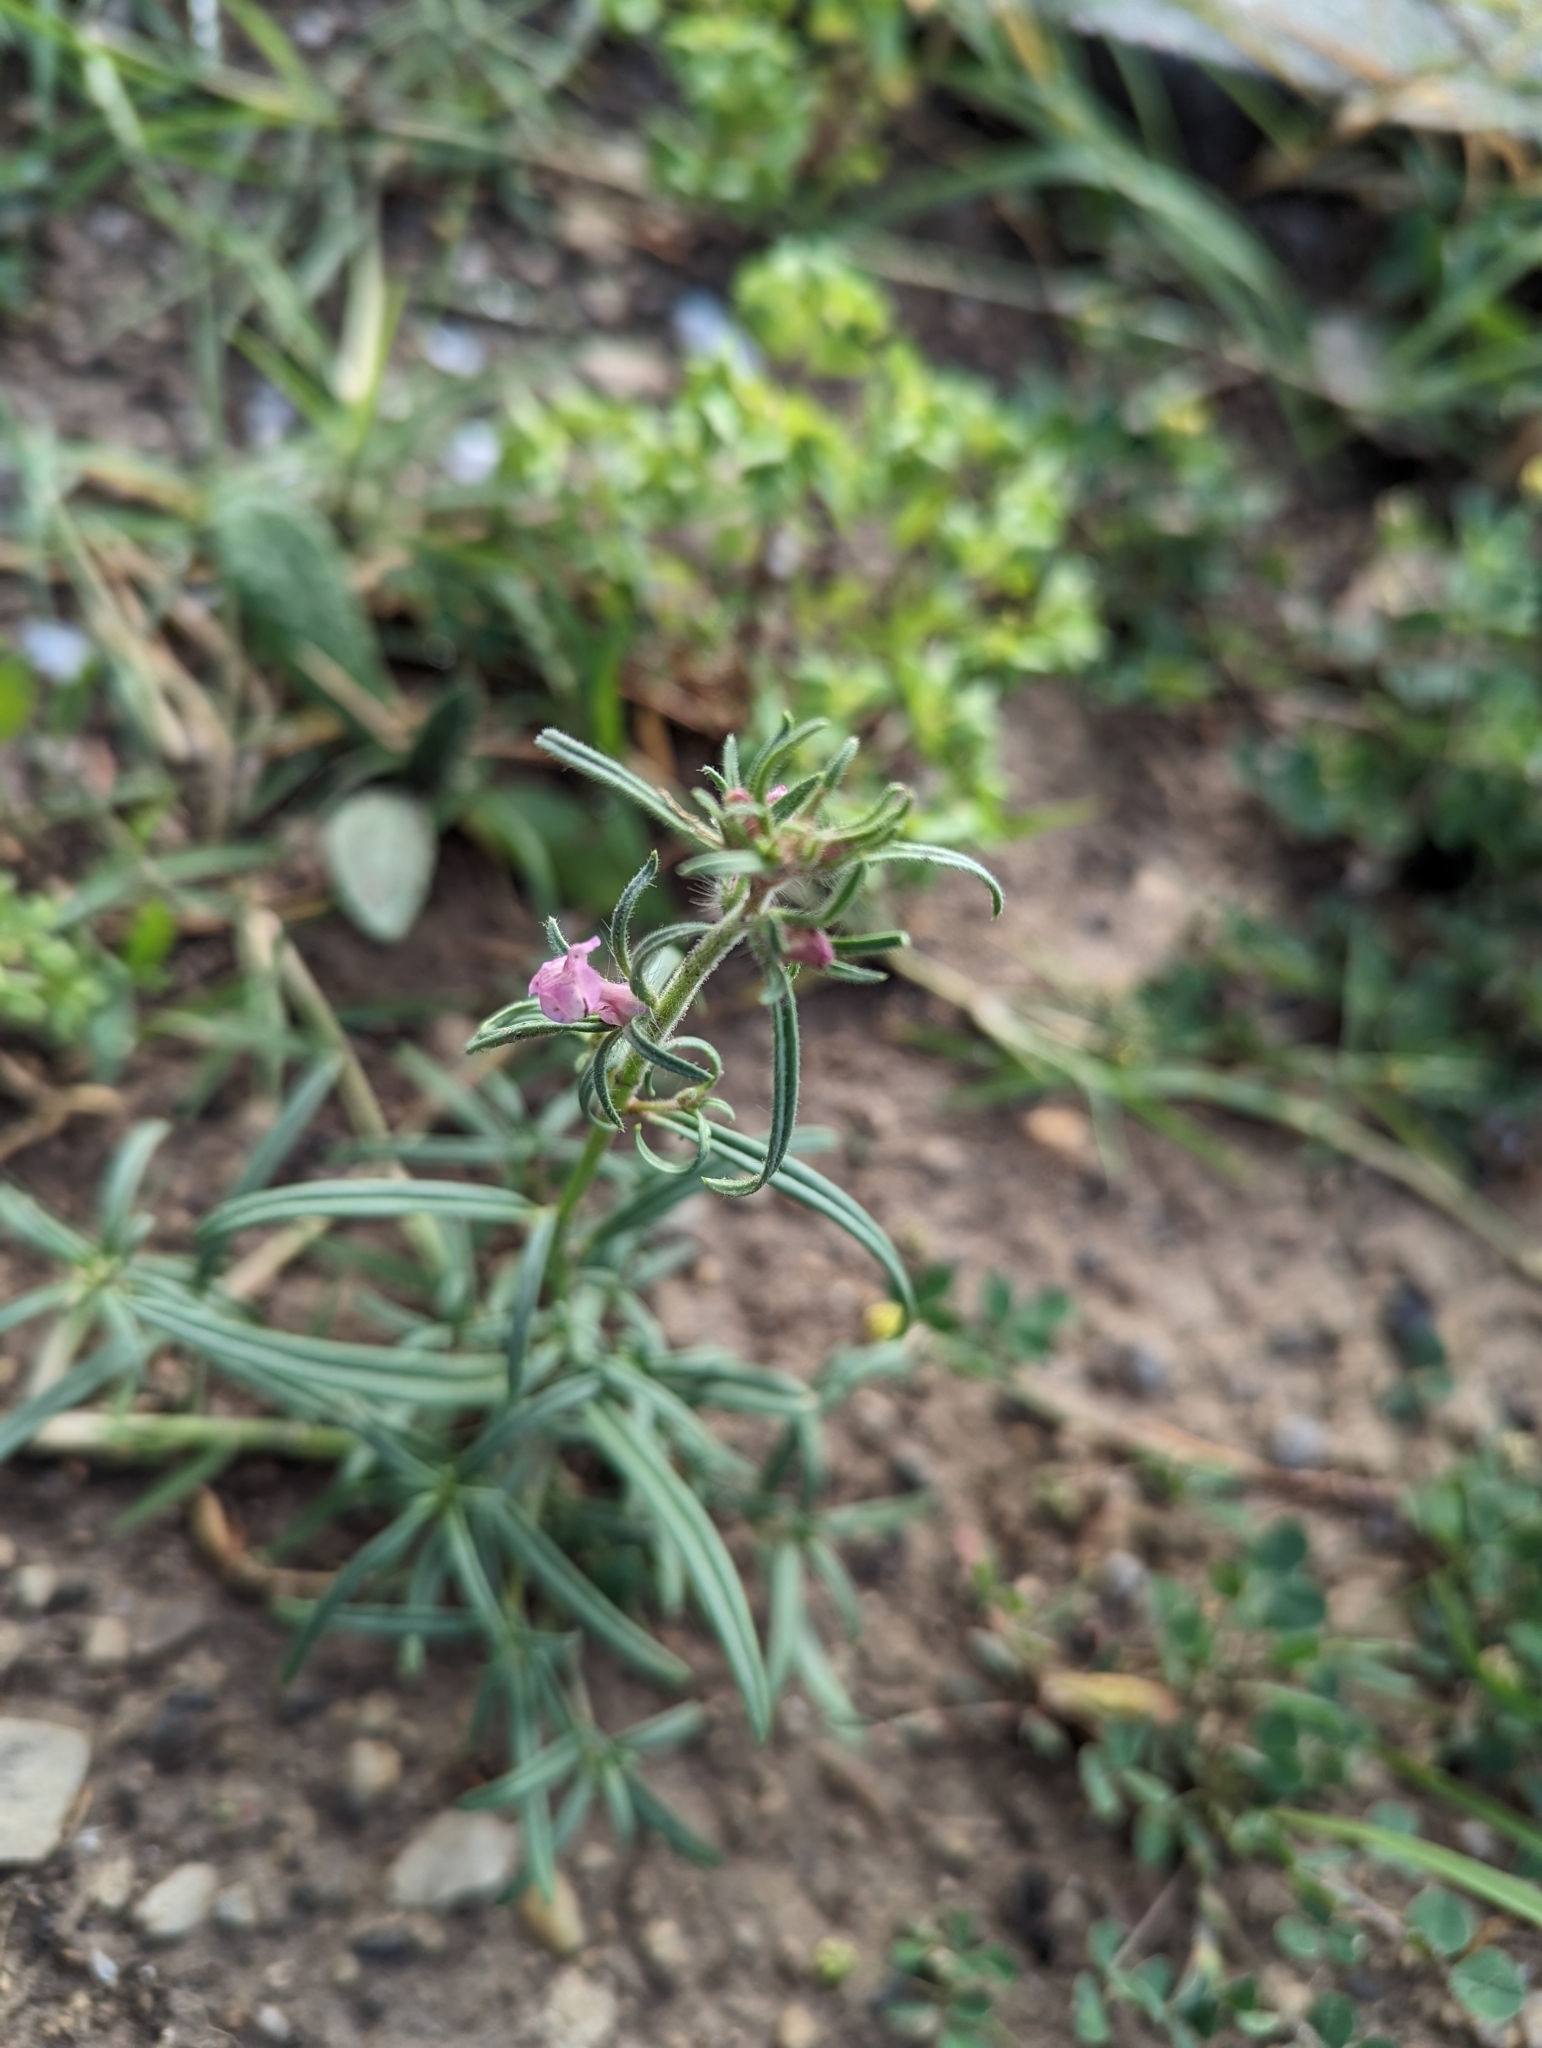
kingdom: Plantae
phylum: Tracheophyta
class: Magnoliopsida
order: Lamiales
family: Plantaginaceae
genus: Misopates
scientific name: Misopates orontium
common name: Weasel's-snout
